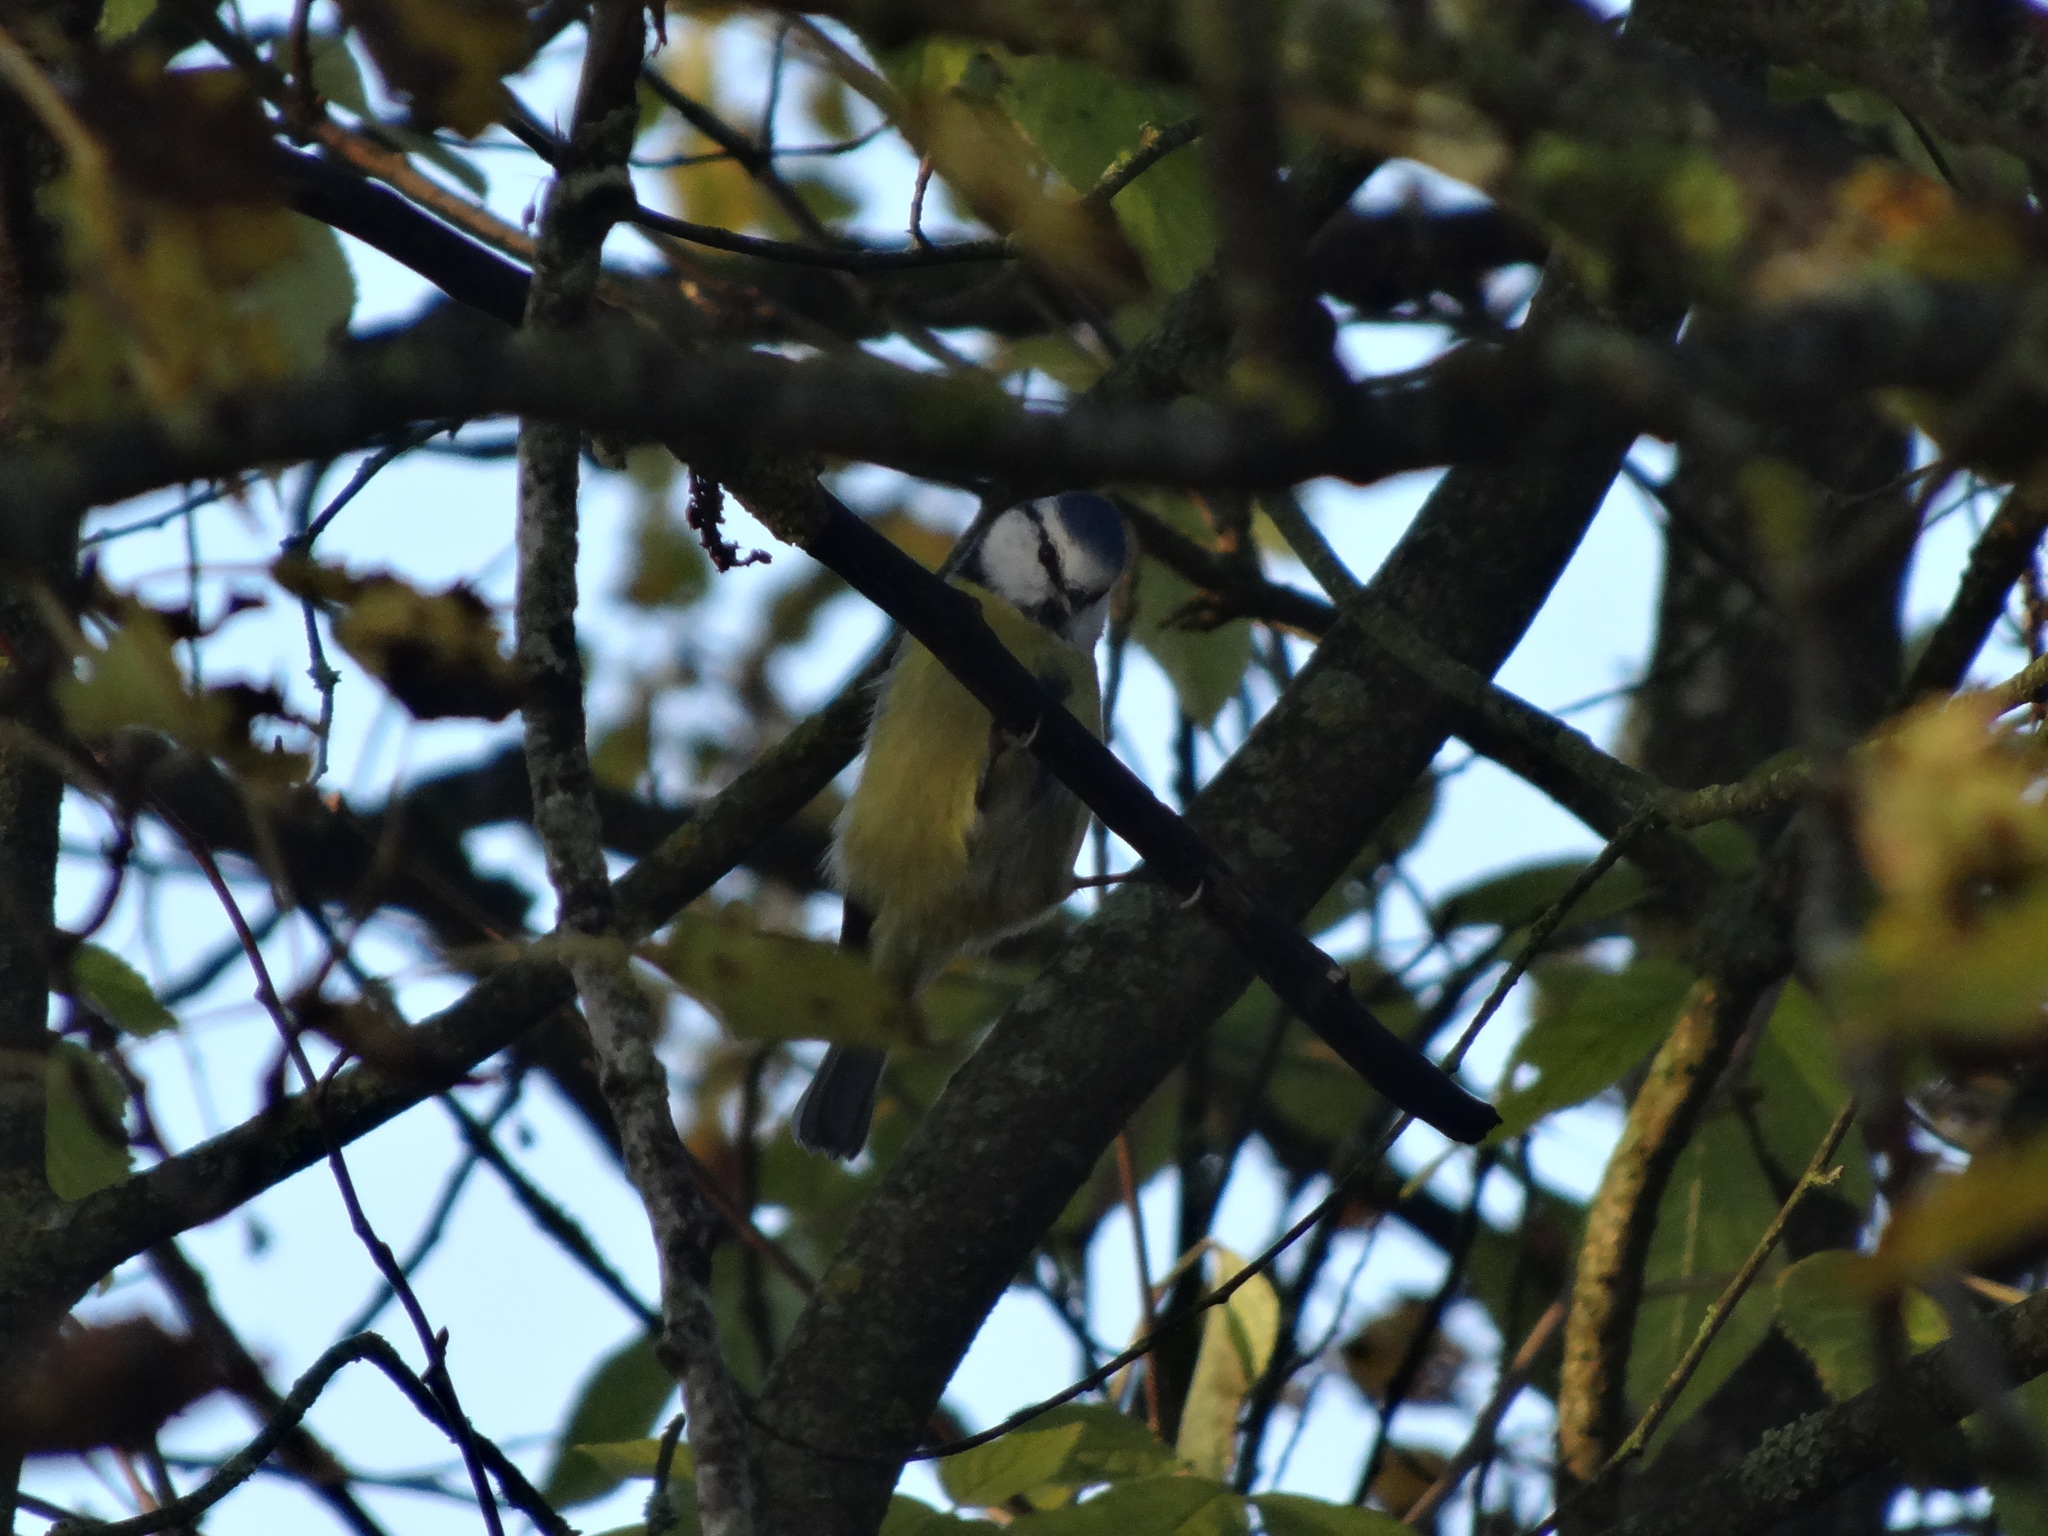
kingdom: Animalia
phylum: Chordata
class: Aves
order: Passeriformes
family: Paridae
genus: Cyanistes
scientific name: Cyanistes caeruleus
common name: Eurasian blue tit
